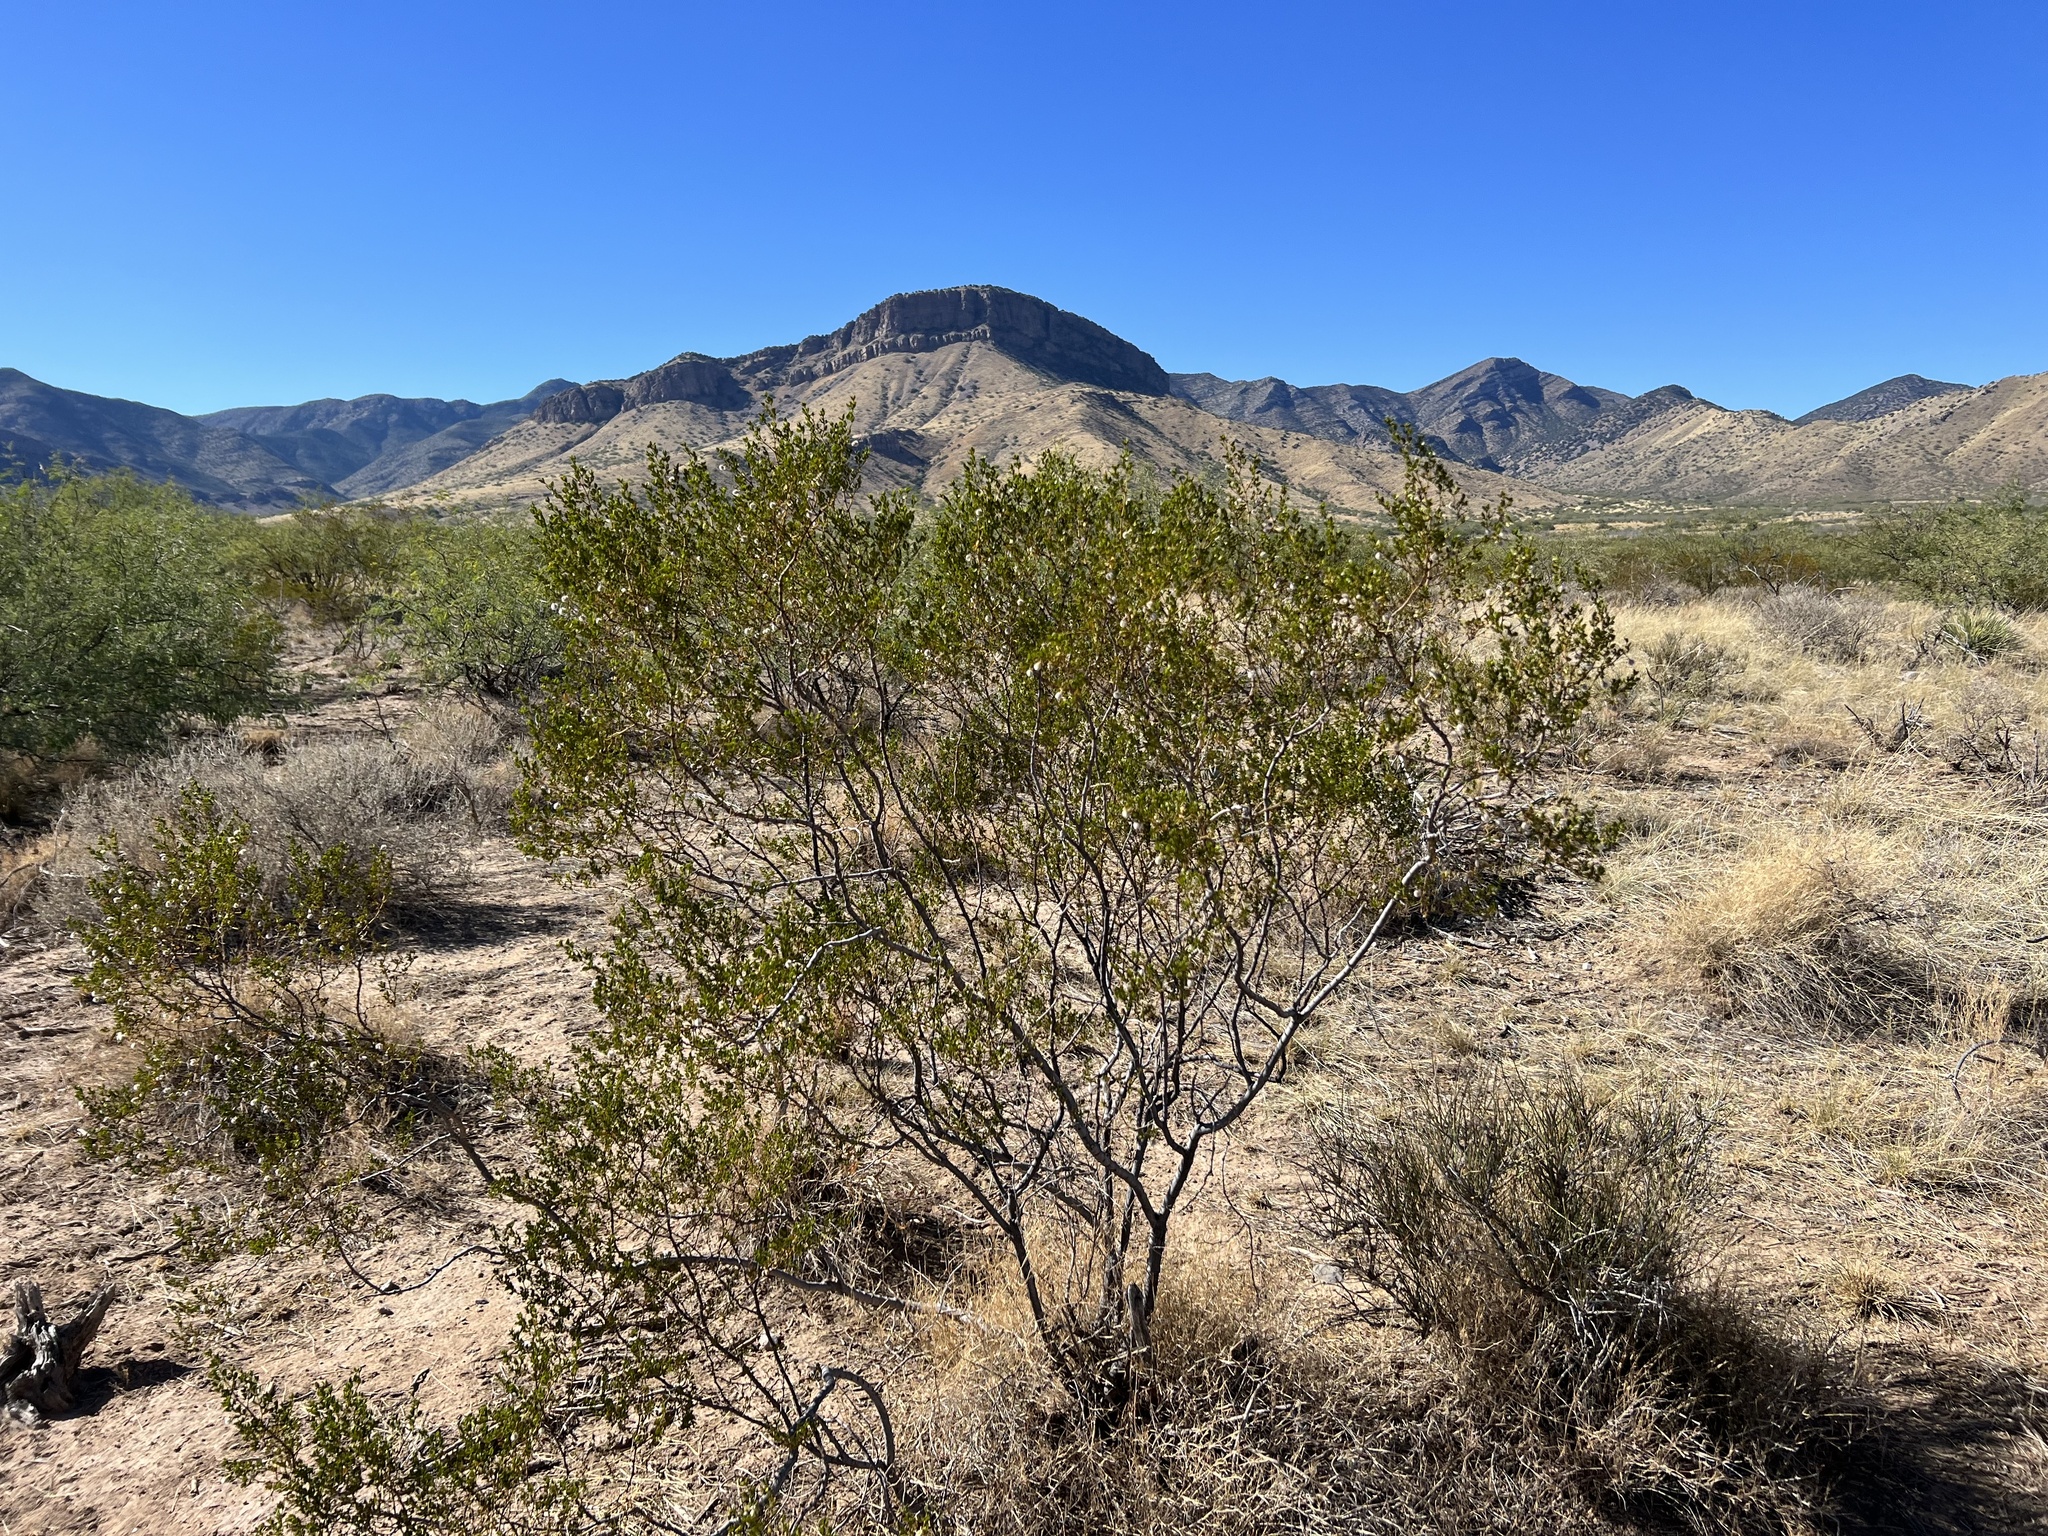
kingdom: Plantae
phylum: Tracheophyta
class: Magnoliopsida
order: Zygophyllales
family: Zygophyllaceae
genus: Larrea
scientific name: Larrea tridentata
